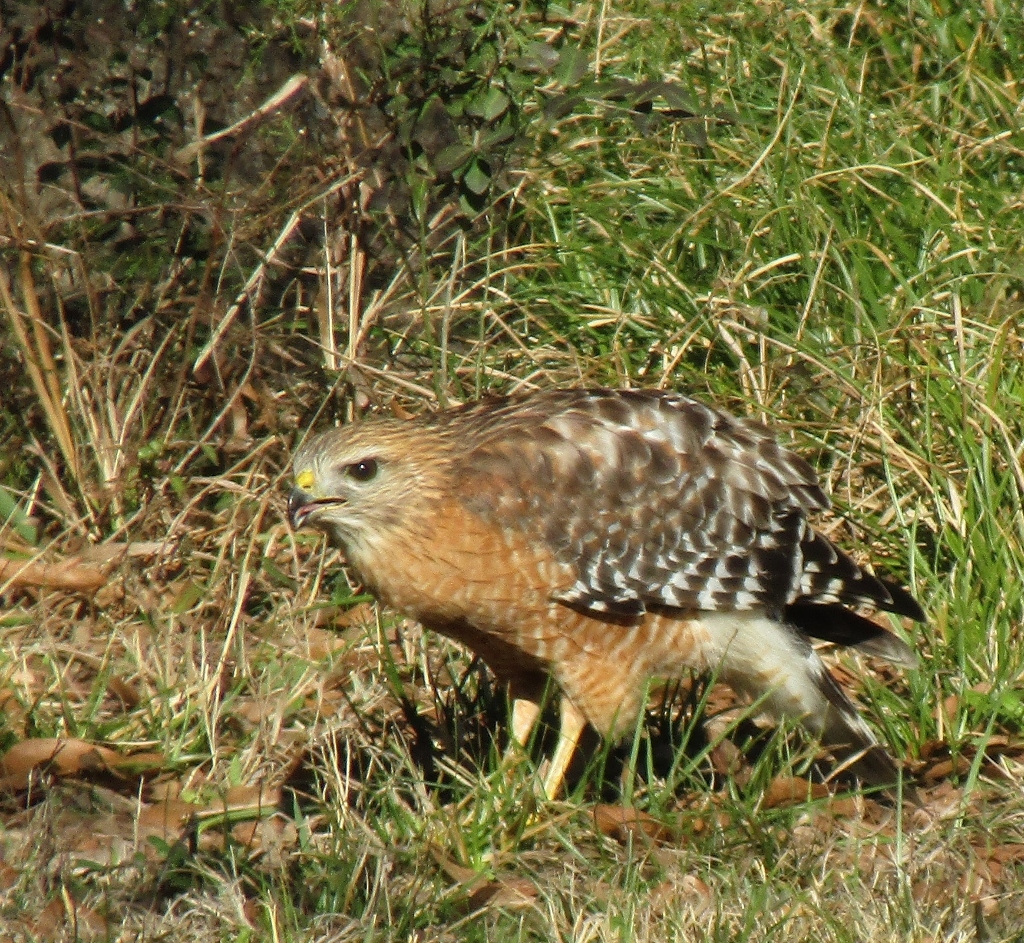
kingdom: Animalia
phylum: Chordata
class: Aves
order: Accipitriformes
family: Accipitridae
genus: Buteo
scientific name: Buteo lineatus
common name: Red-shouldered hawk
